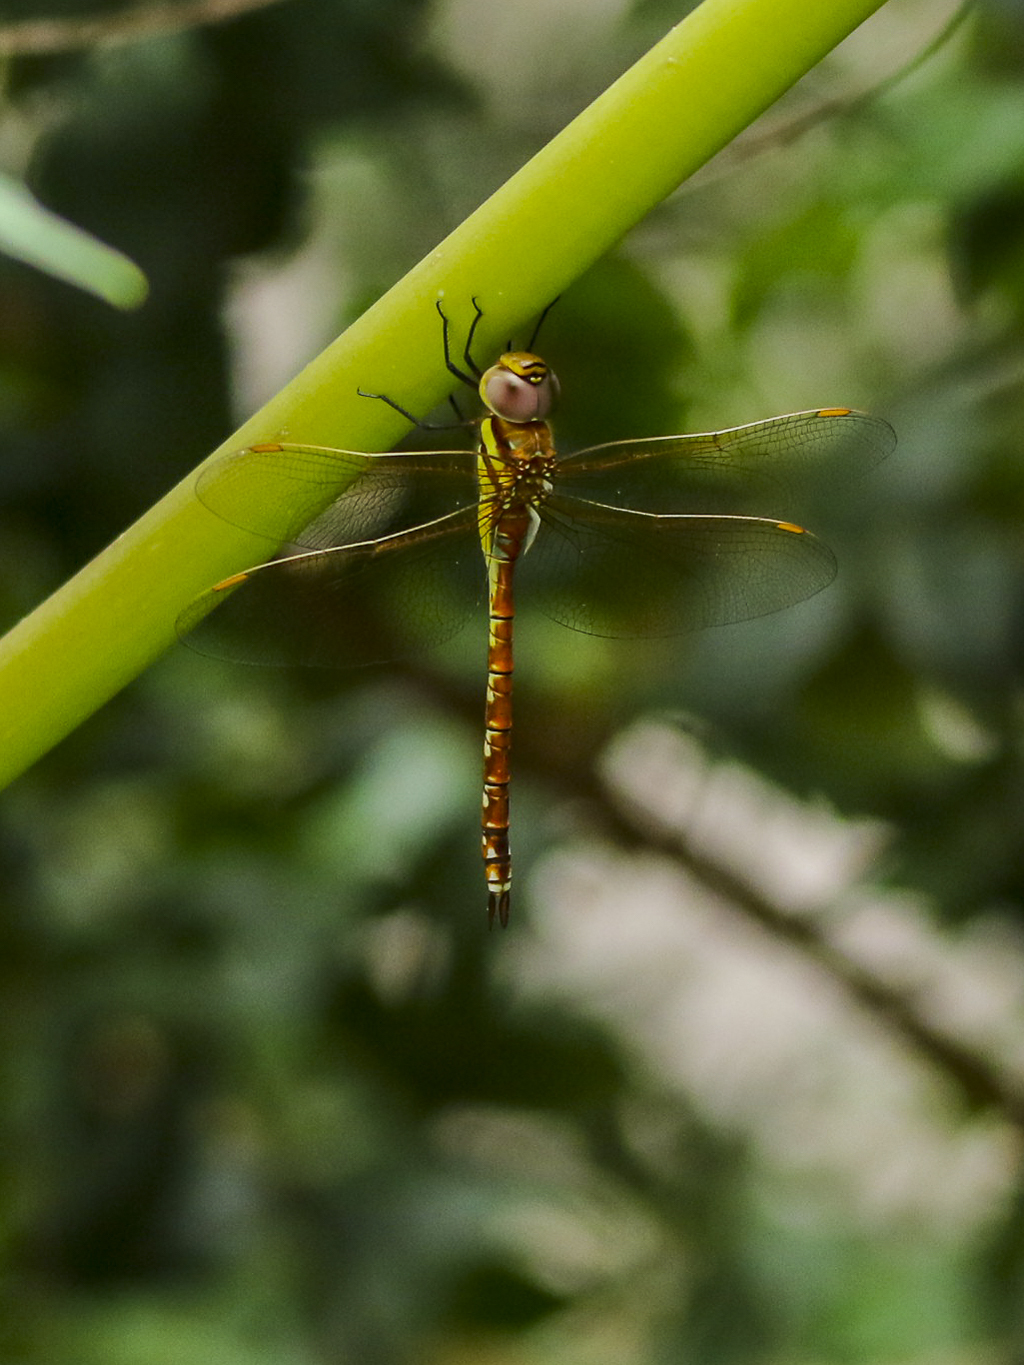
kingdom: Animalia
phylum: Arthropoda
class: Insecta
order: Odonata
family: Aeshnidae
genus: Anaciaeschna
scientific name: Anaciaeschna jaspidea
